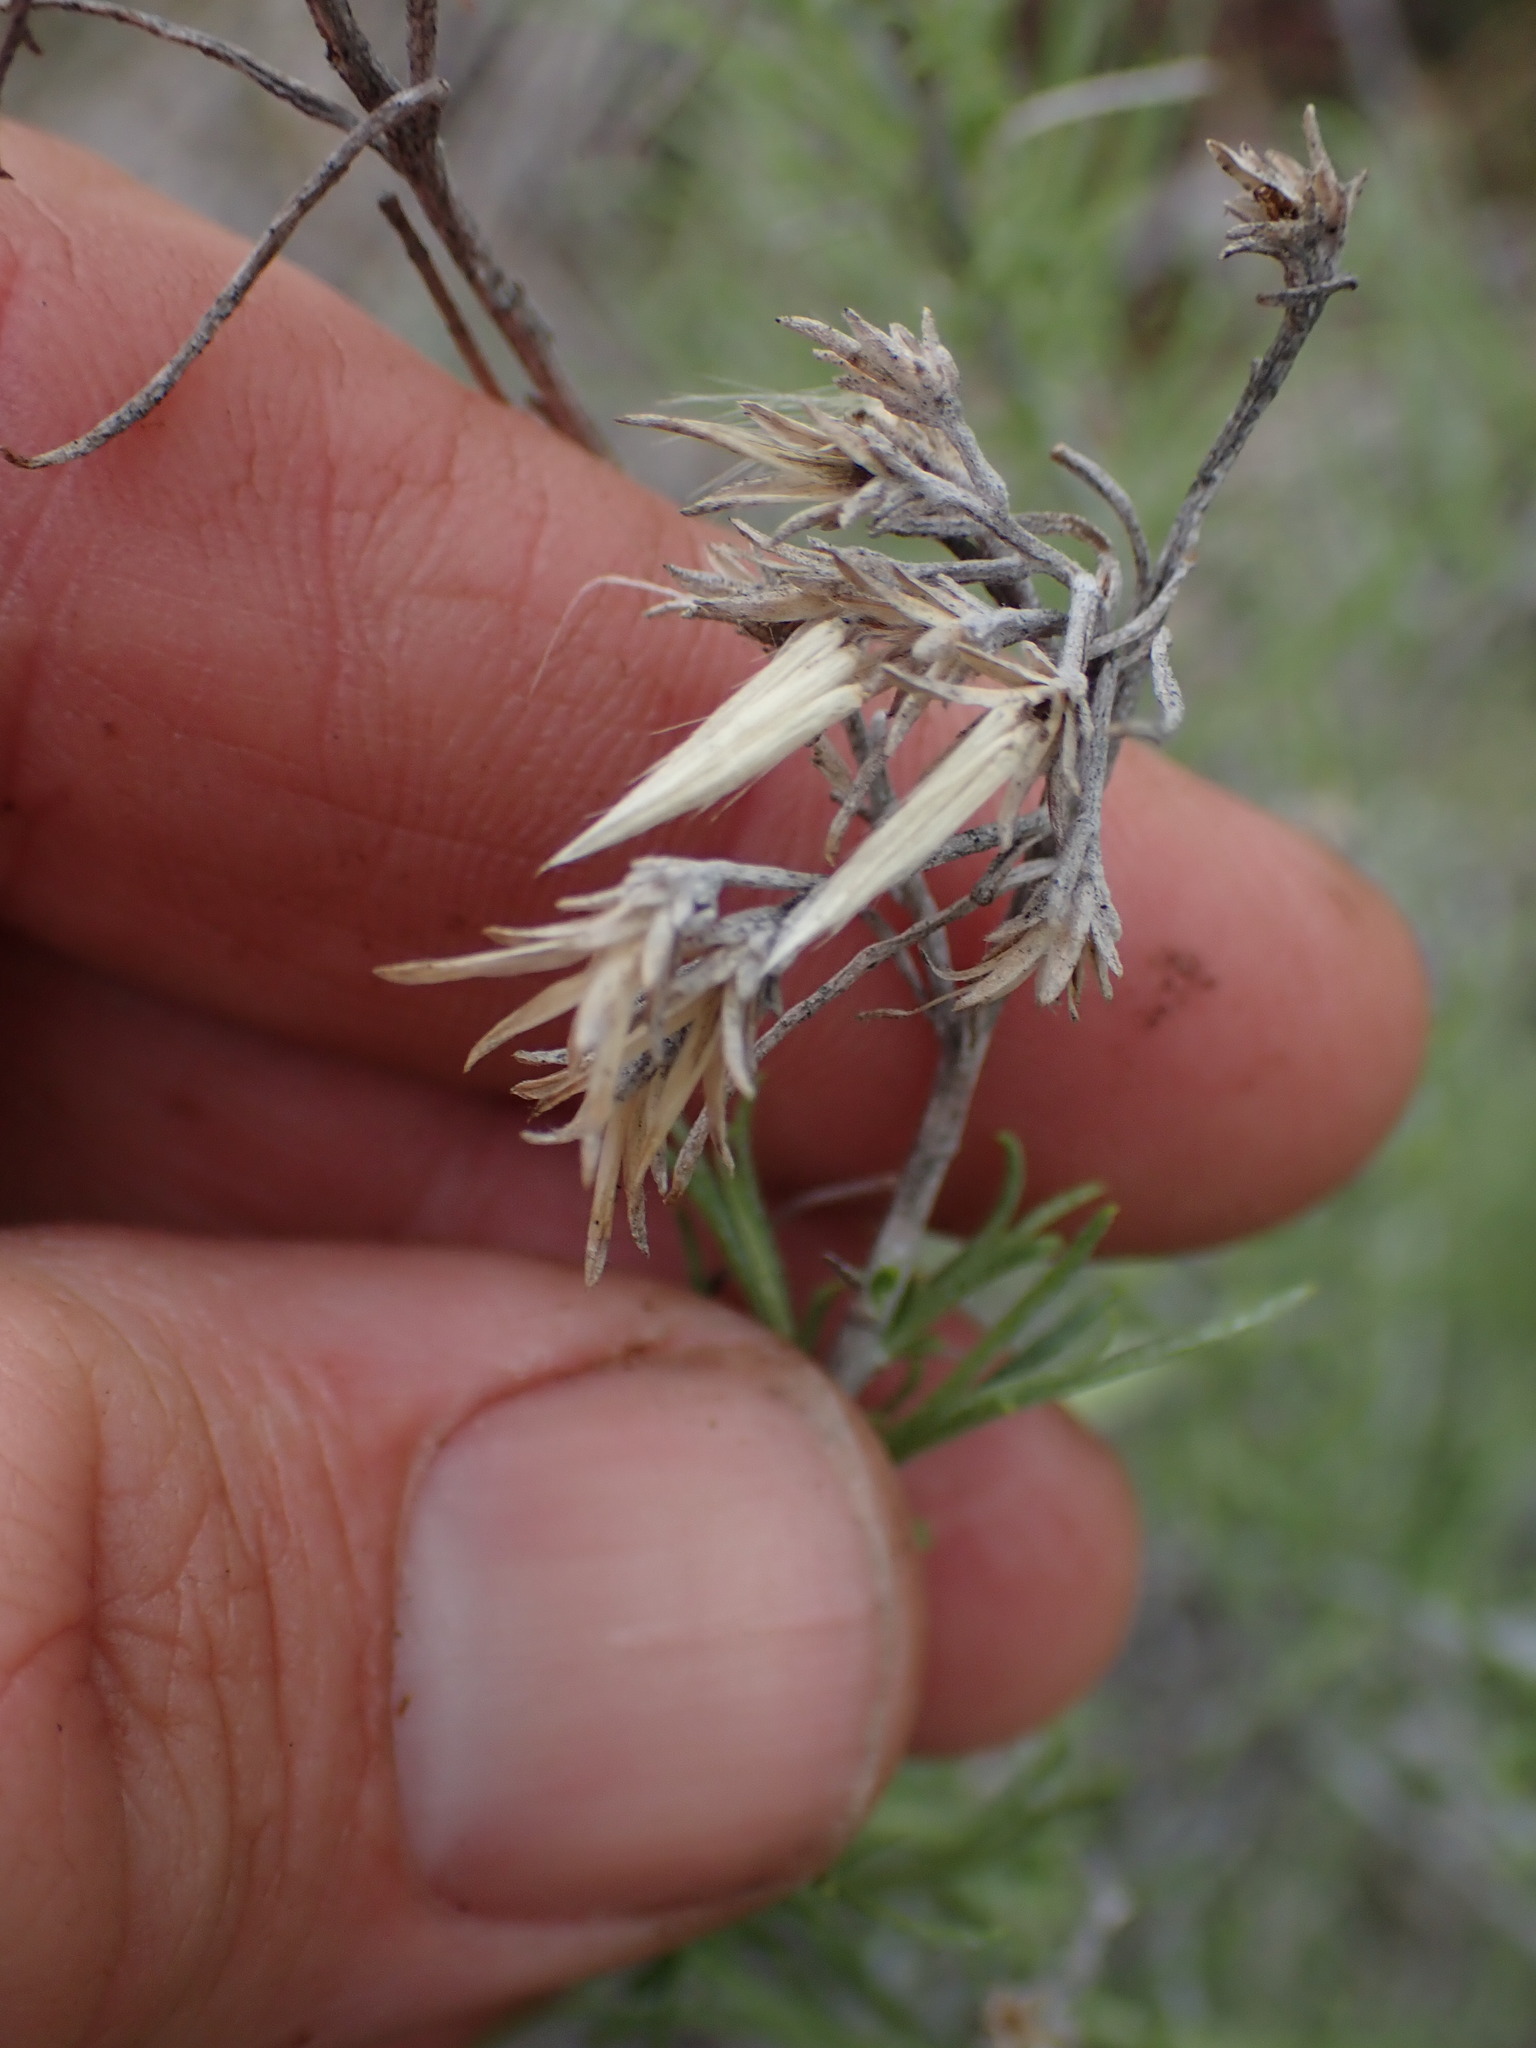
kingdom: Plantae
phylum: Tracheophyta
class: Magnoliopsida
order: Asterales
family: Asteraceae
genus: Ericameria
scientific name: Ericameria nauseosa
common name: Rubber rabbitbrush
